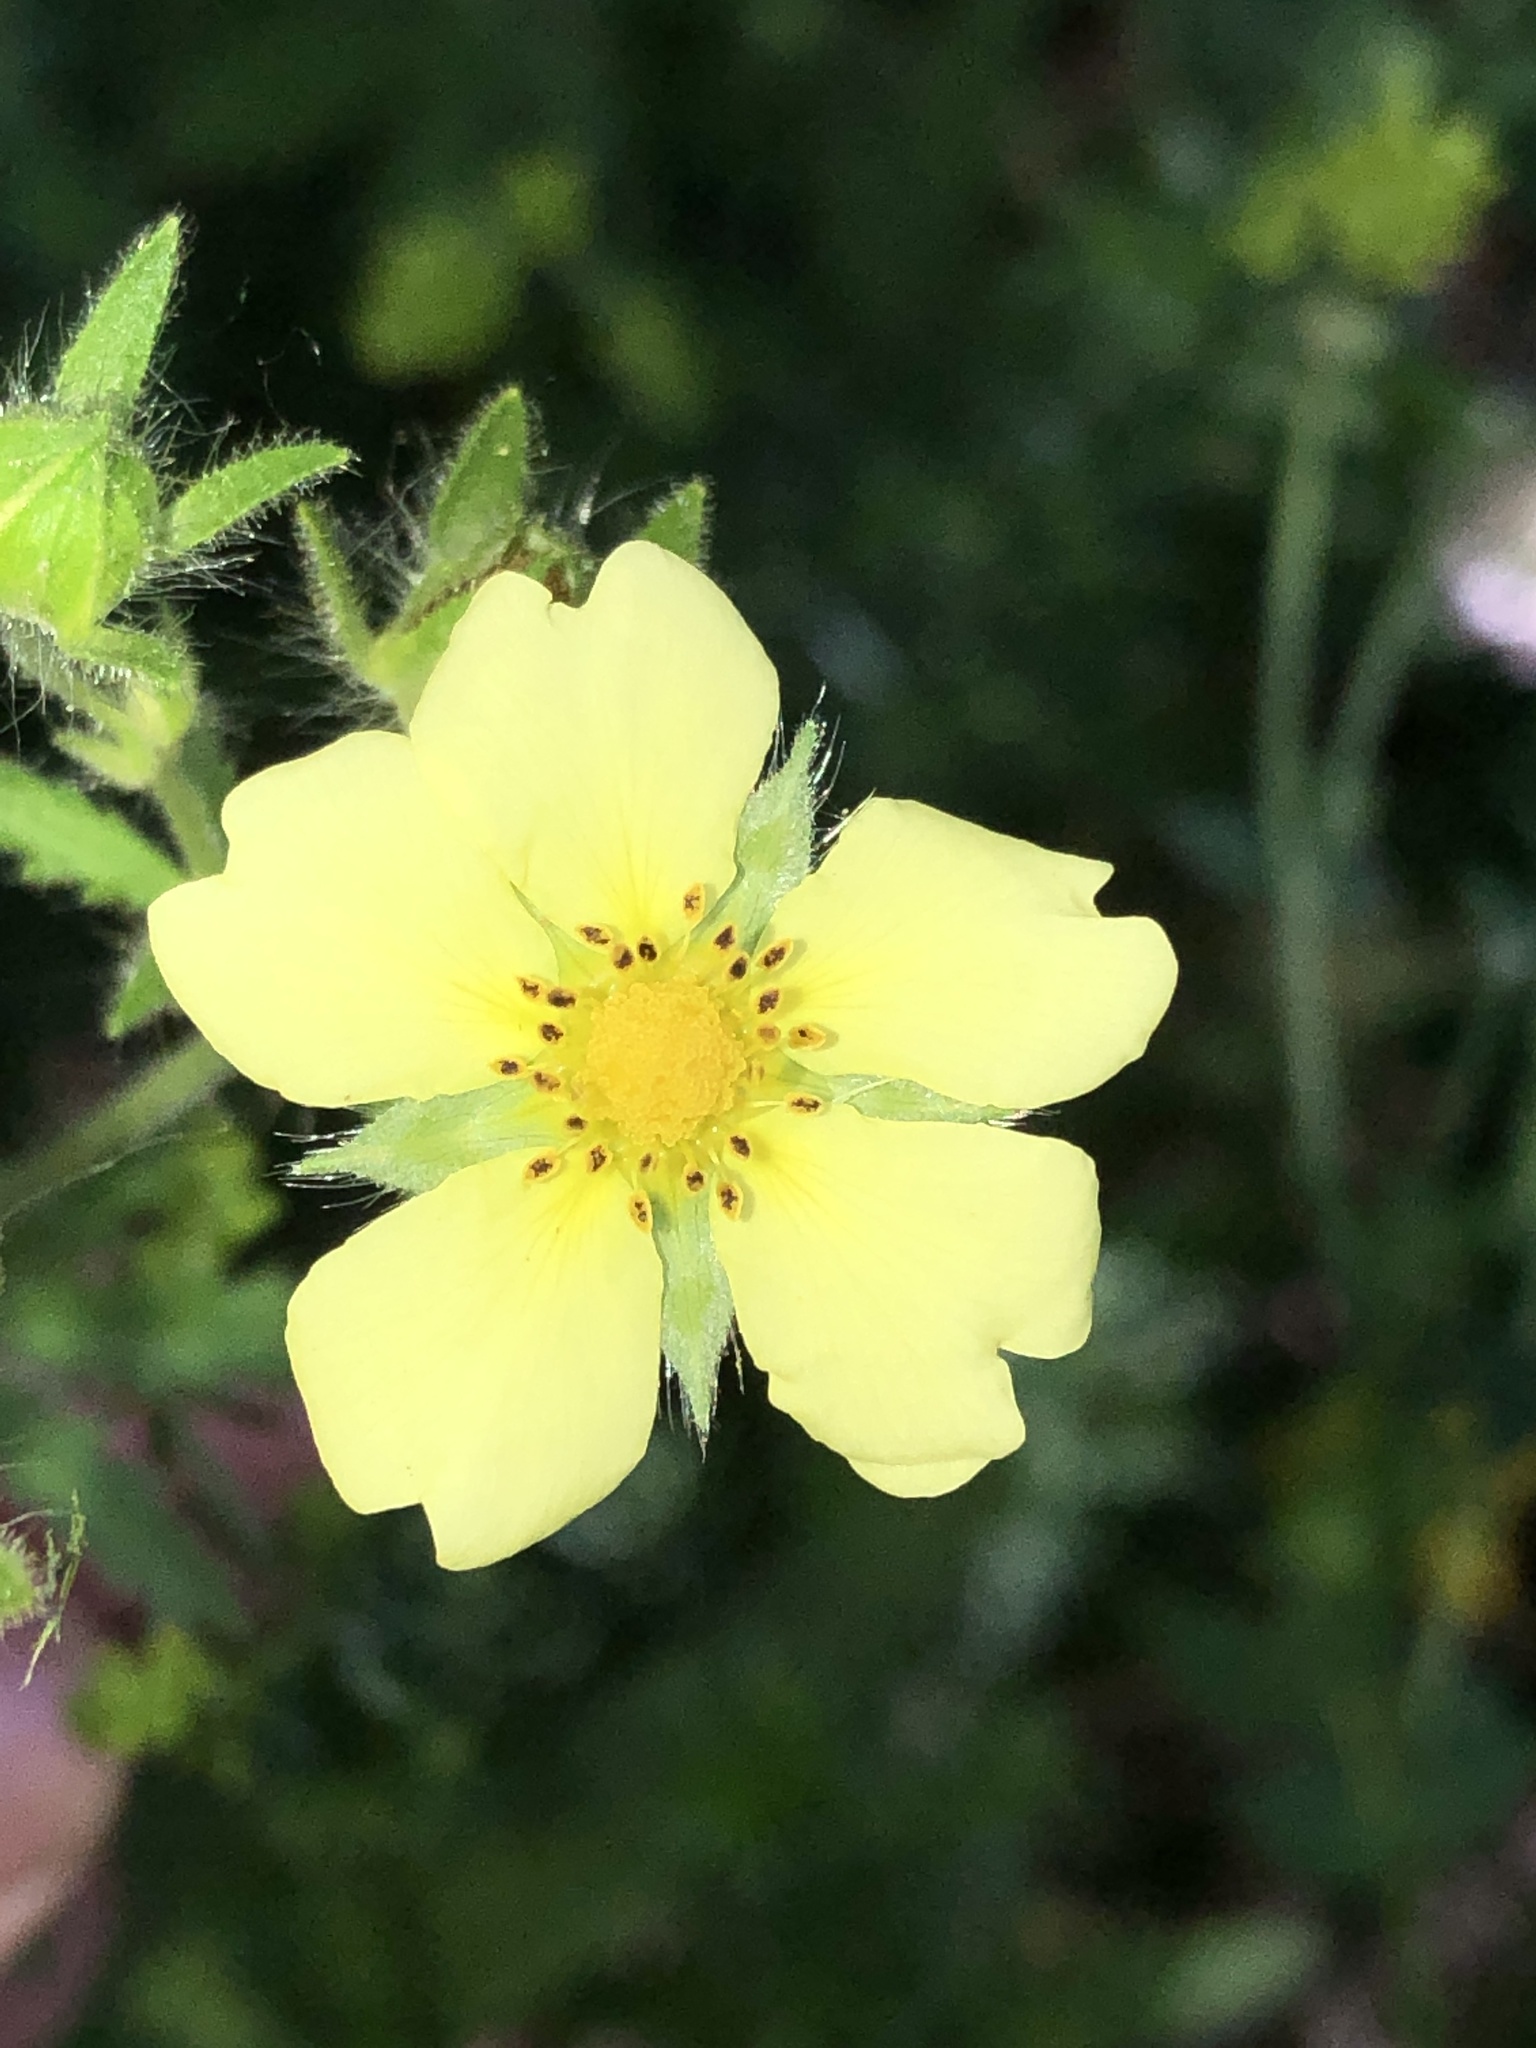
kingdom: Plantae
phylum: Tracheophyta
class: Magnoliopsida
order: Rosales
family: Rosaceae
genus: Potentilla
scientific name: Potentilla recta
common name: Sulphur cinquefoil
